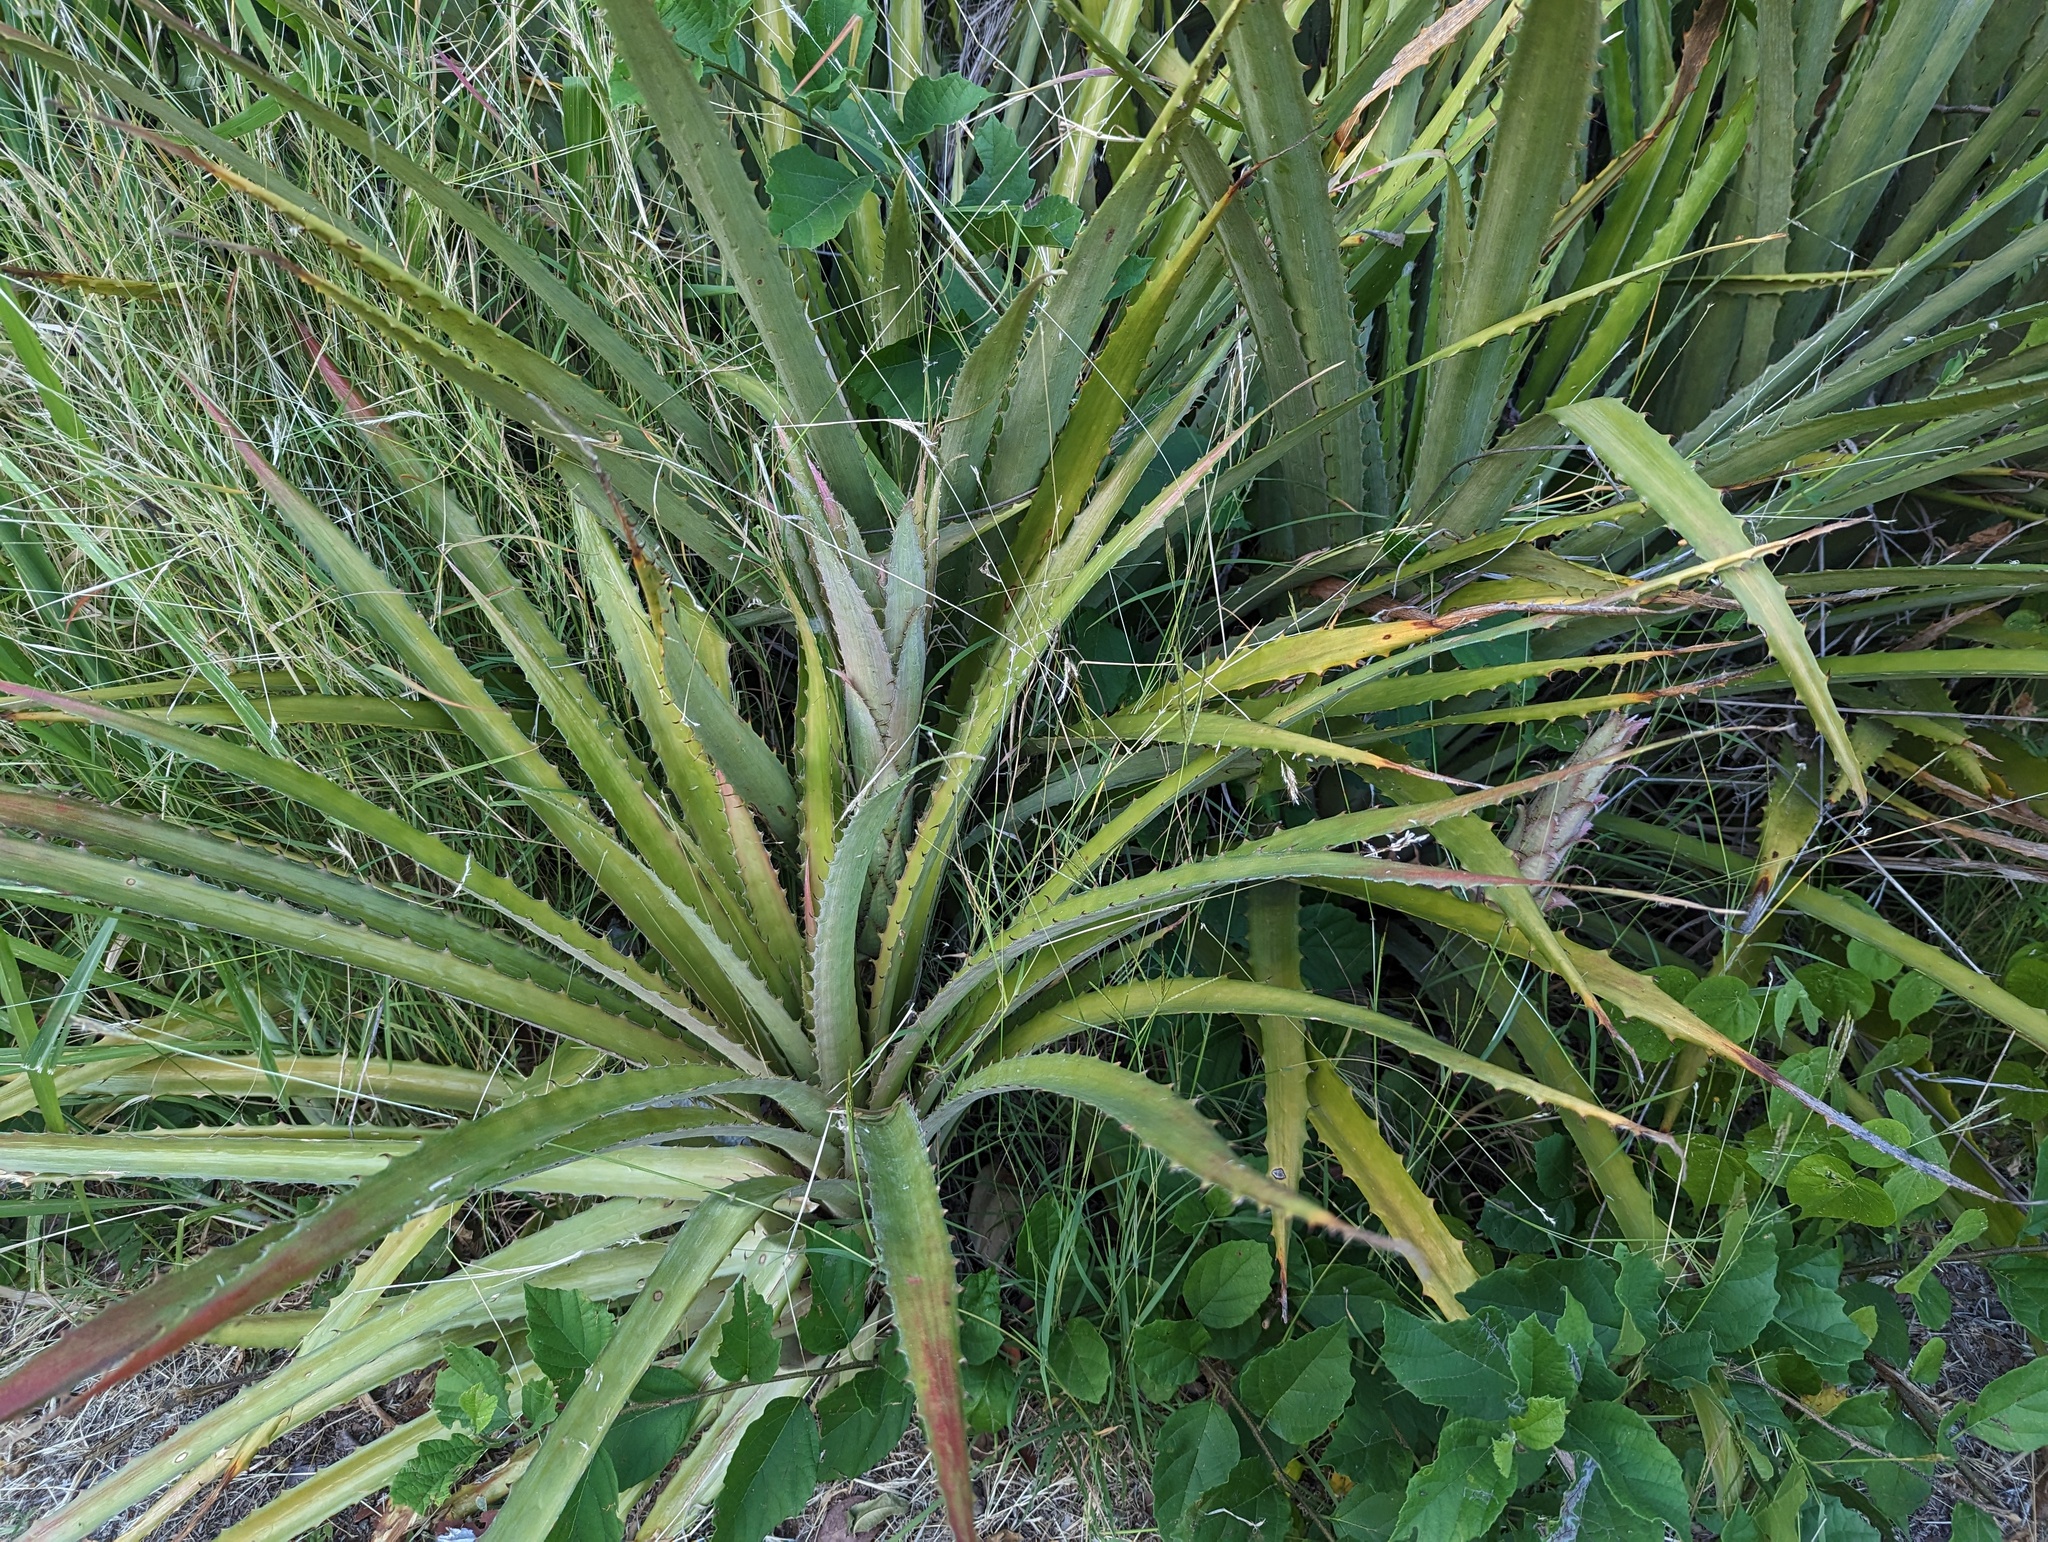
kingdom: Plantae
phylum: Tracheophyta
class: Liliopsida
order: Poales
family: Bromeliaceae
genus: Bromelia
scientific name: Bromelia pinguin
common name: Pinguin
